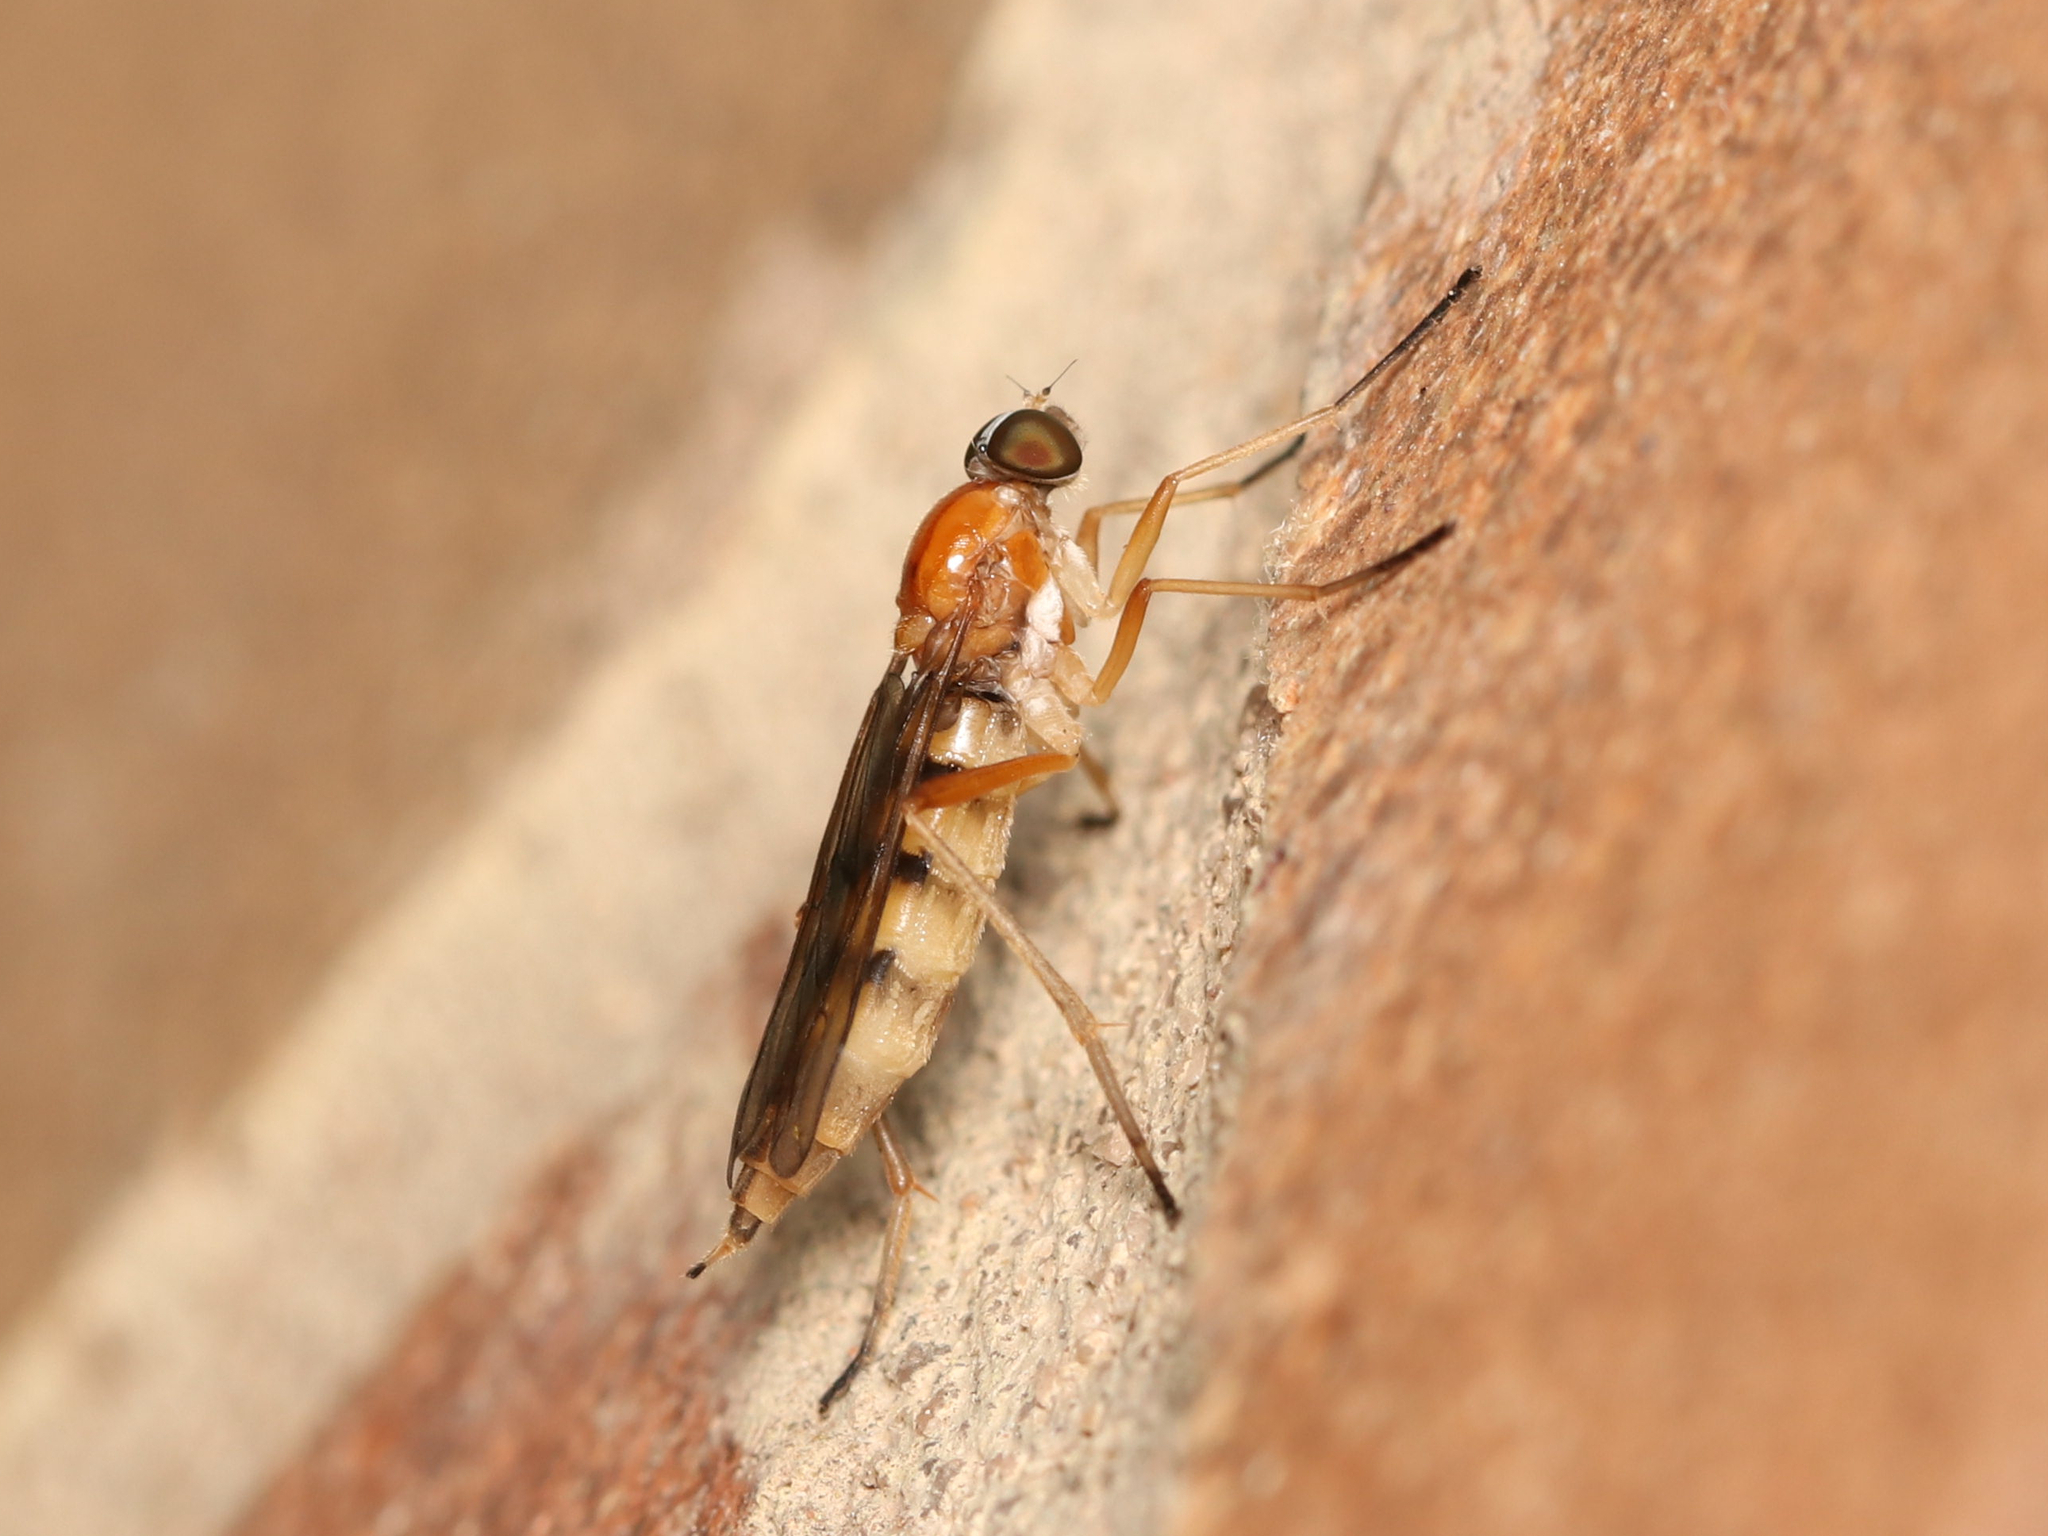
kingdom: Animalia
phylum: Arthropoda
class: Insecta
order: Diptera
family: Xylophagidae
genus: Dialysis
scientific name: Dialysis elongata
